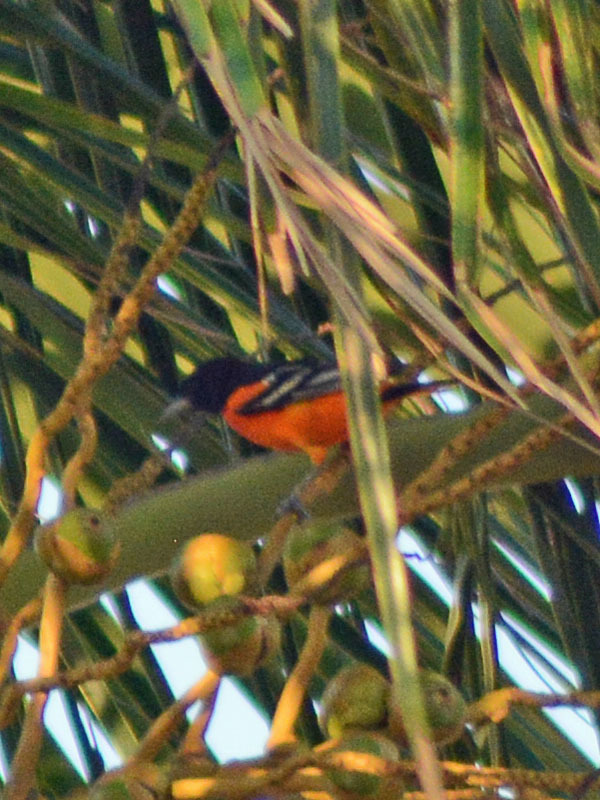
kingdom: Animalia
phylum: Chordata
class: Aves
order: Passeriformes
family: Icteridae
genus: Icterus
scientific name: Icterus galbula
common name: Baltimore oriole
